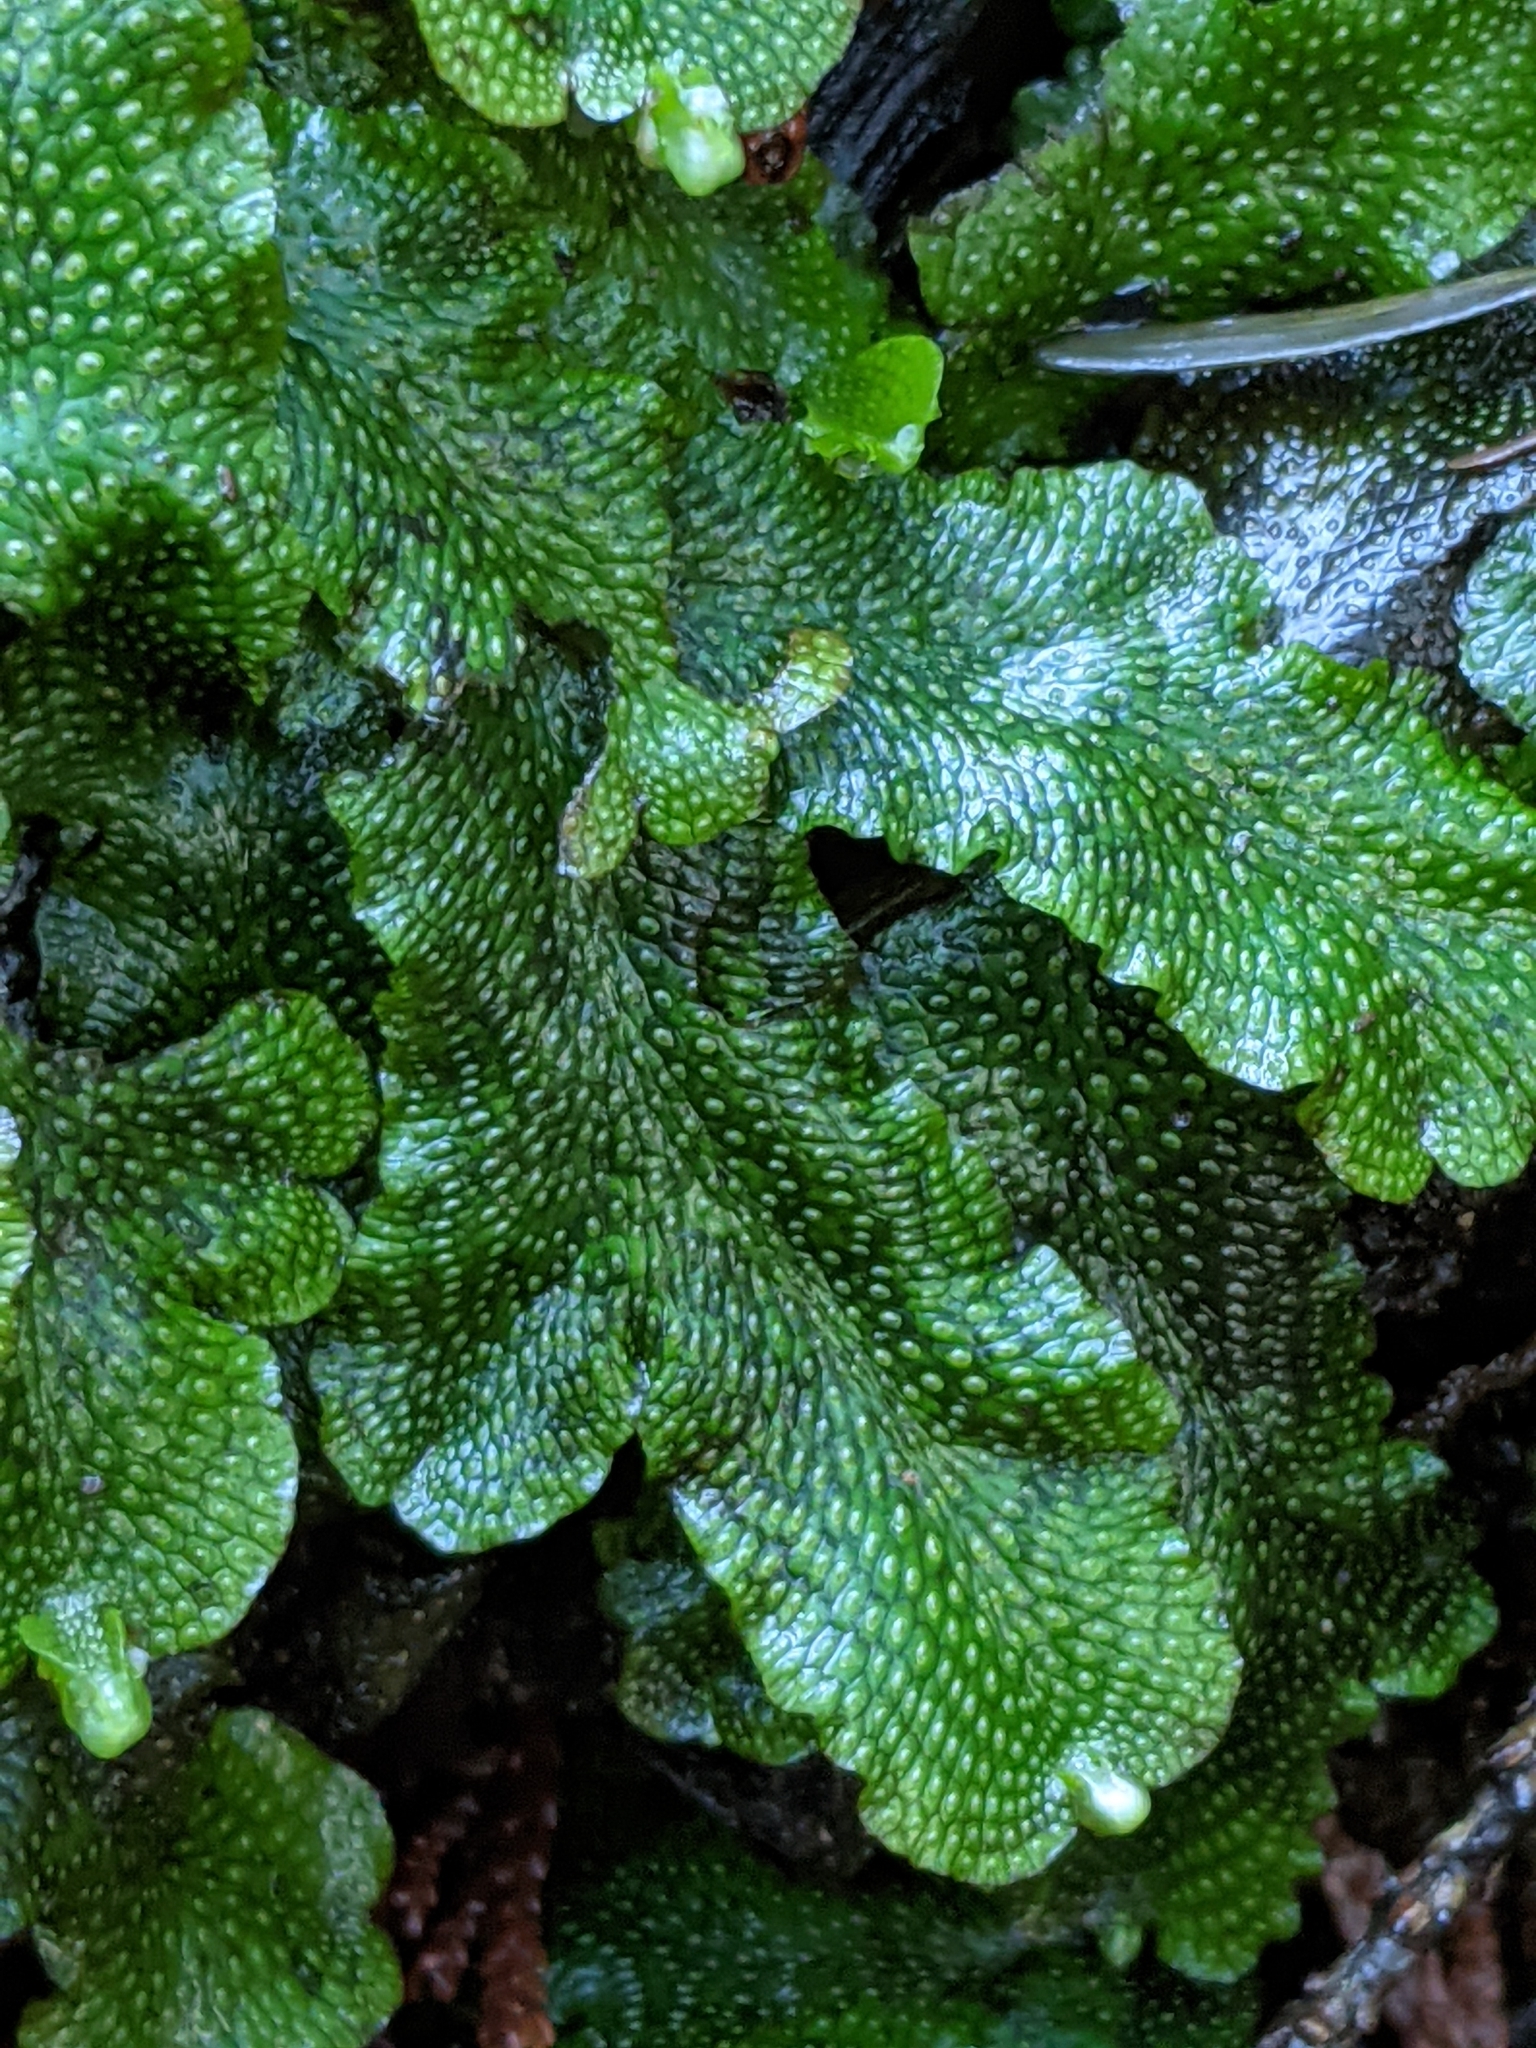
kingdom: Plantae
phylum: Marchantiophyta
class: Marchantiopsida
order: Marchantiales
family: Conocephalaceae
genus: Conocephalum
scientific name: Conocephalum salebrosum
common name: Cat-tongue liverwort
